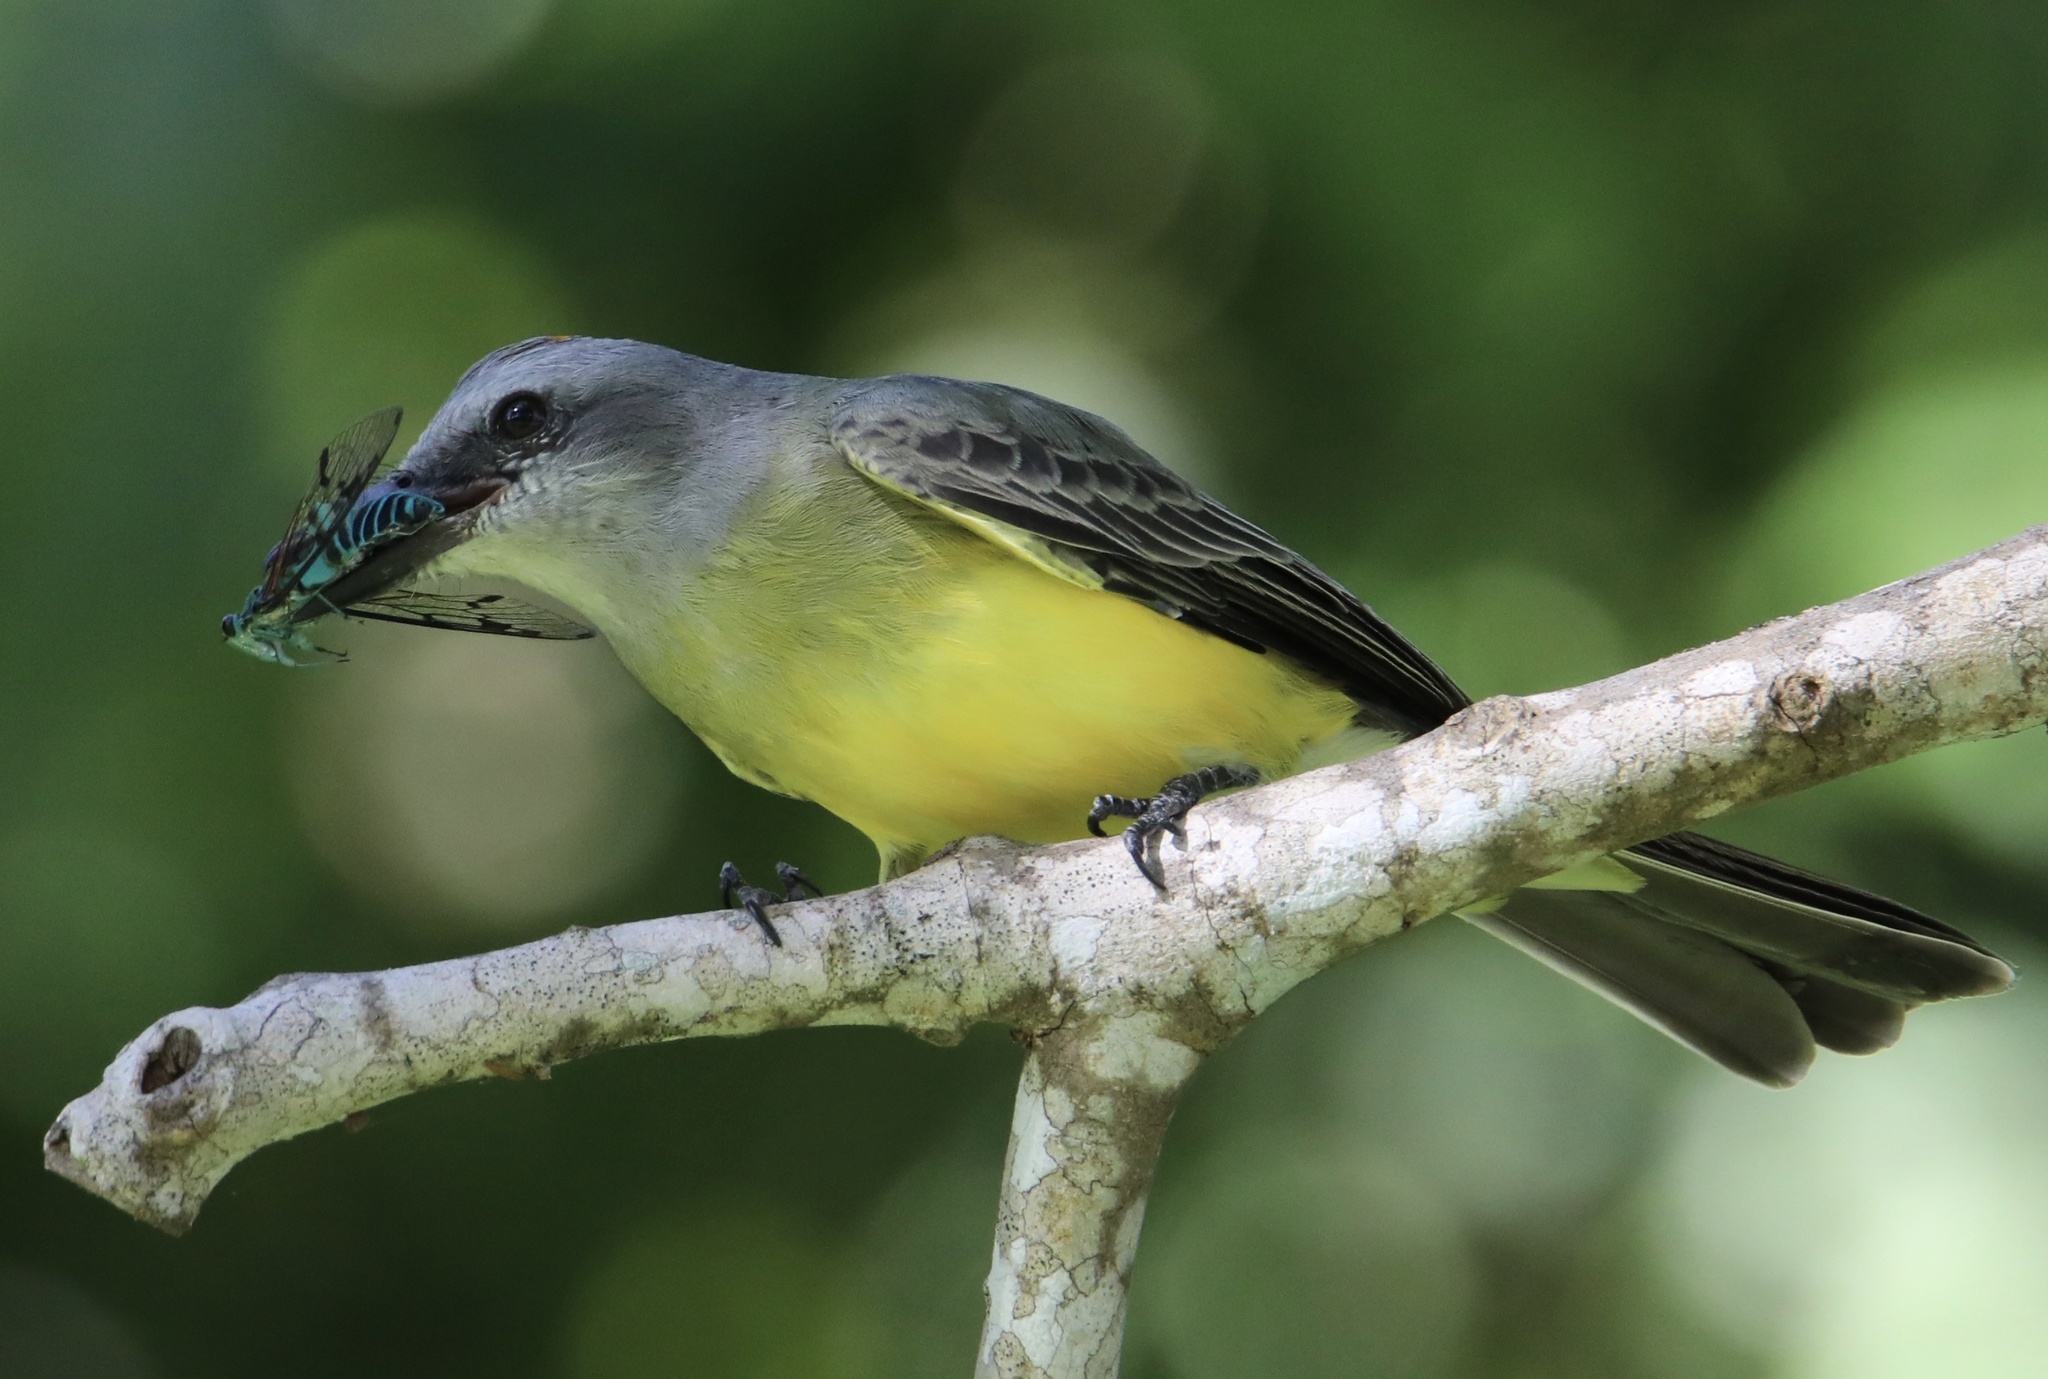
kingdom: Animalia
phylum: Chordata
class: Aves
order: Passeriformes
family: Tyrannidae
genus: Tyrannus
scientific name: Tyrannus melancholicus
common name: Tropical kingbird
